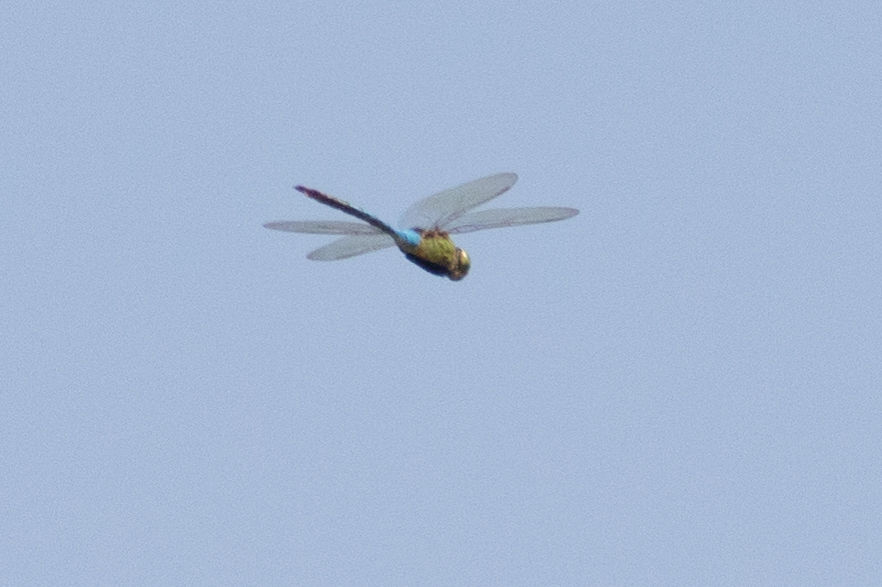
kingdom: Animalia
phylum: Arthropoda
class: Insecta
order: Odonata
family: Aeshnidae
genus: Anax
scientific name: Anax junius
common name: Common green darner
